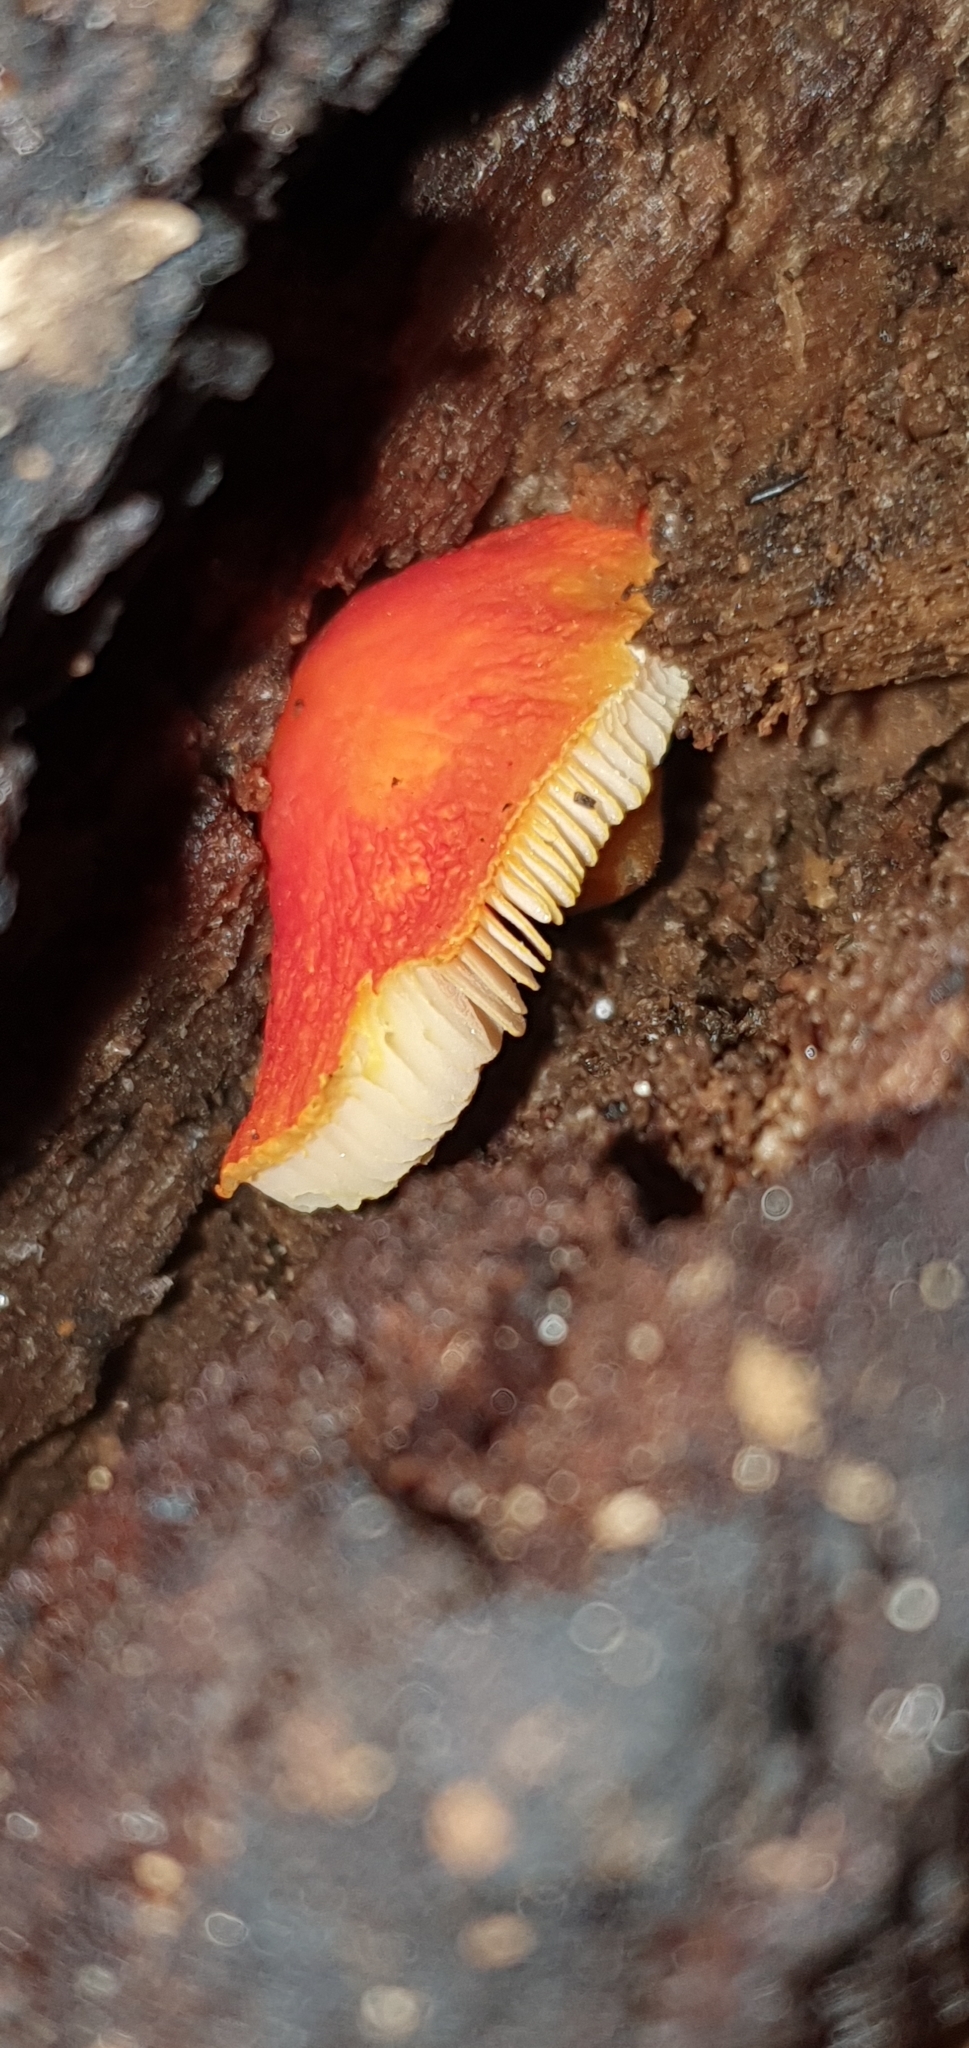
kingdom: Fungi
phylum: Basidiomycota
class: Agaricomycetes
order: Agaricales
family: Pluteaceae
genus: Pluteus
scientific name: Pluteus aurantiorugosus
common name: Flame shield
